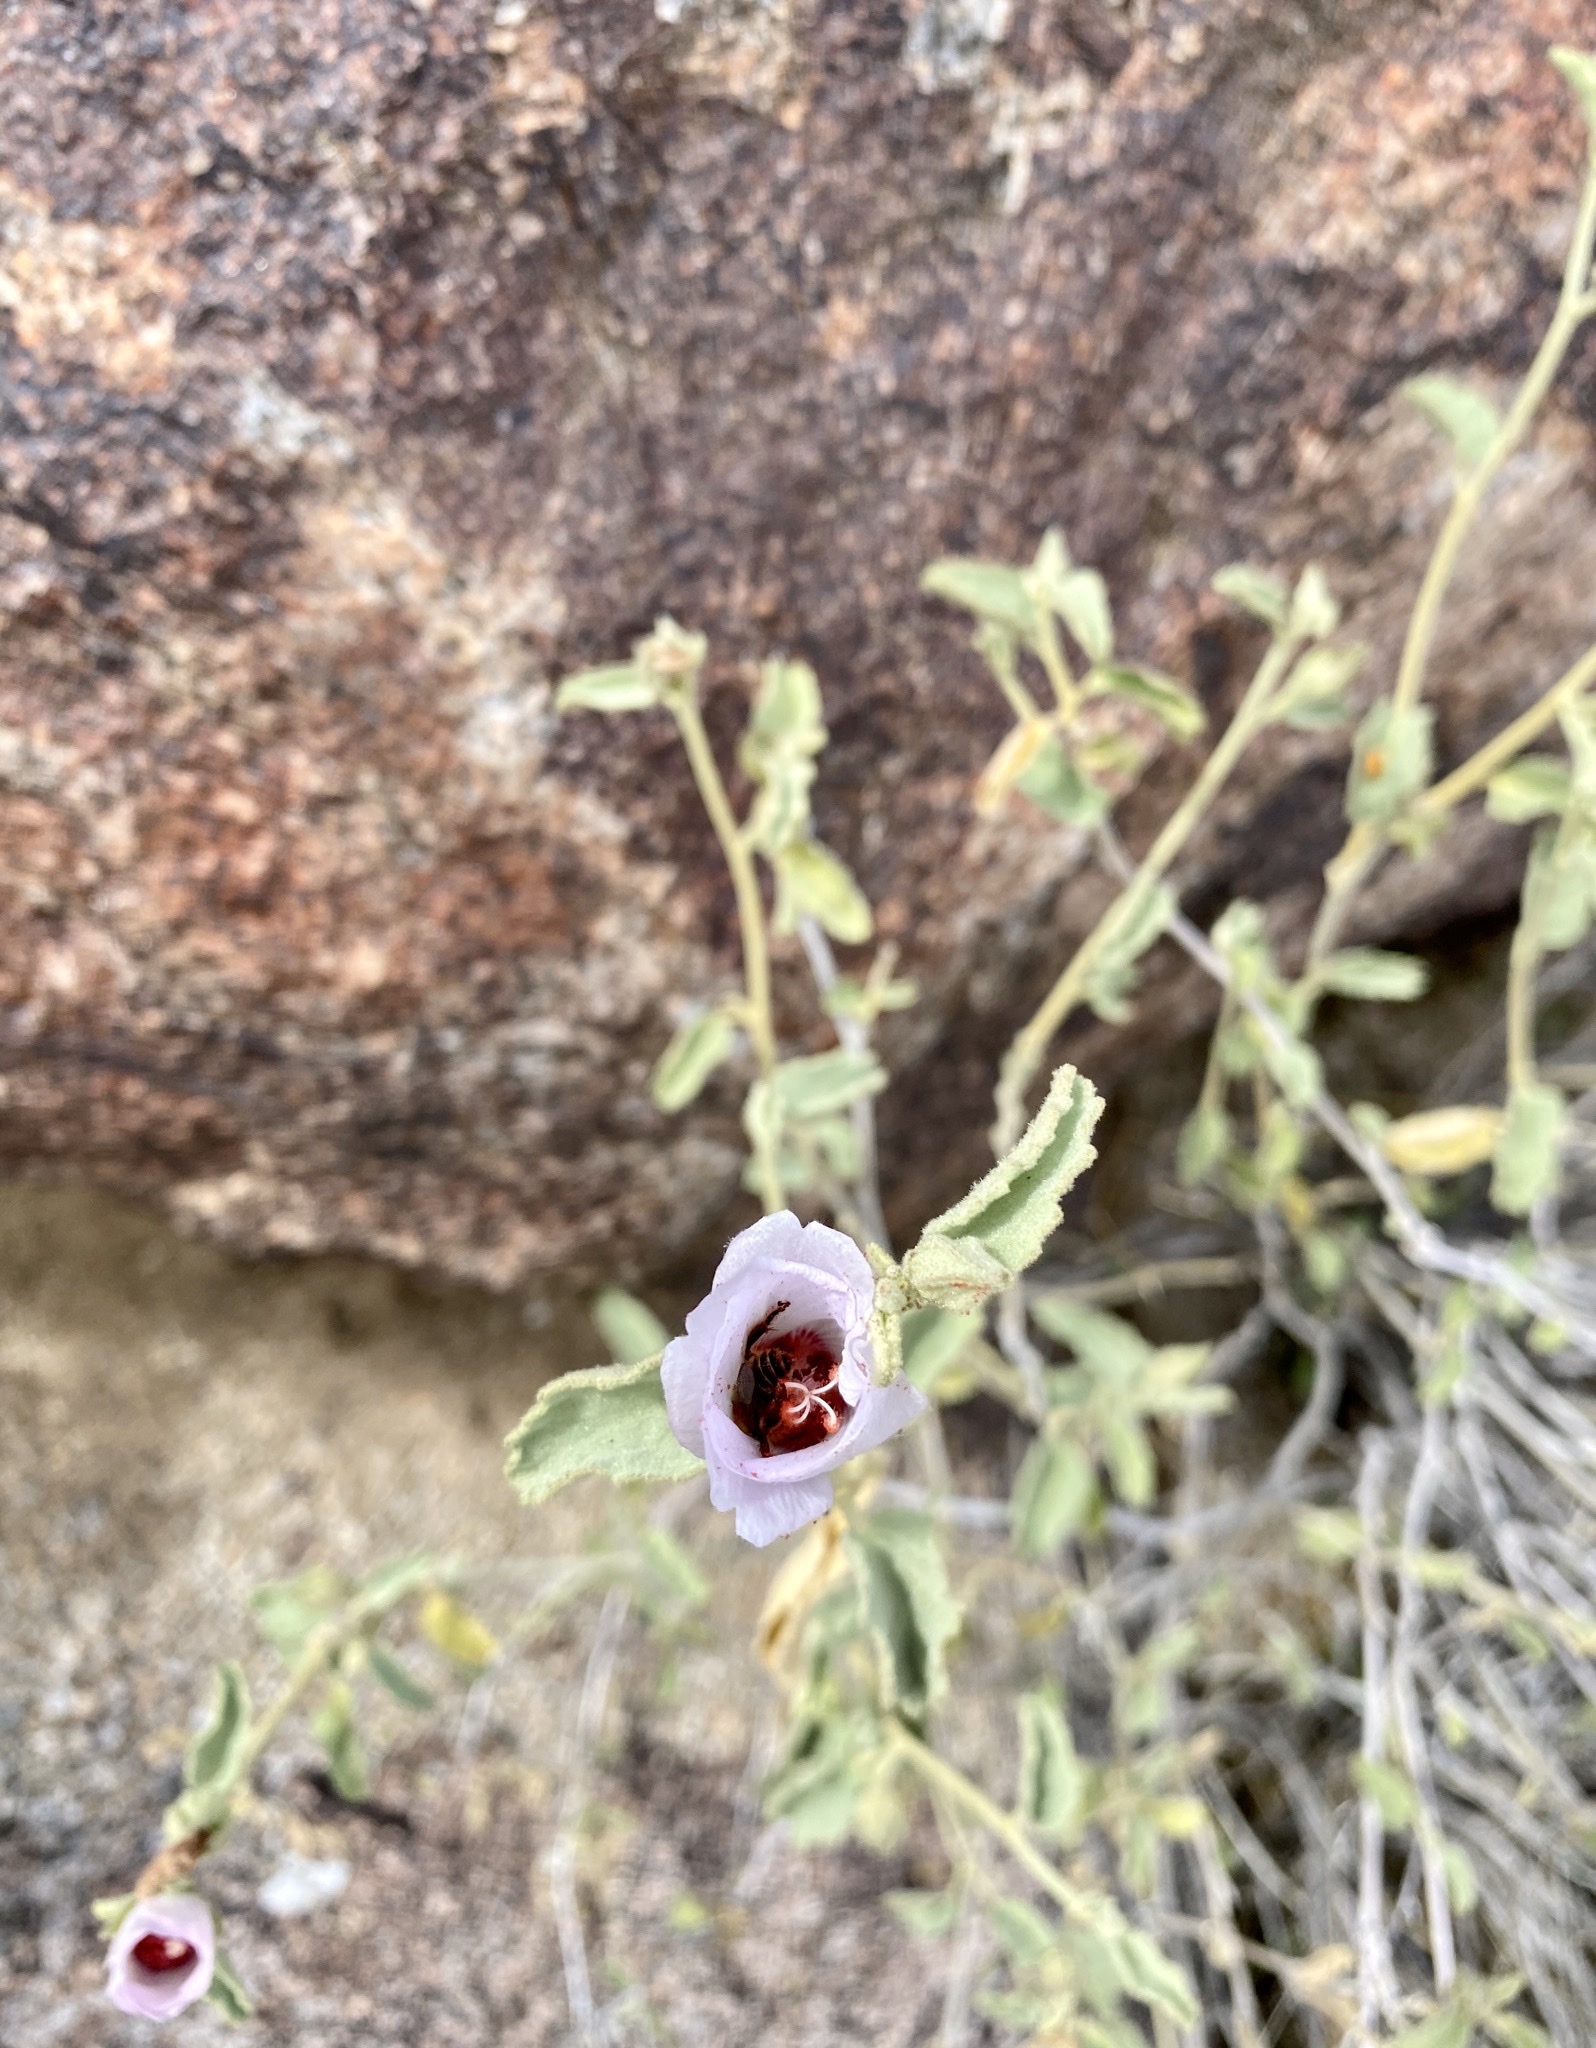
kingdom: Plantae
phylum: Tracheophyta
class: Magnoliopsida
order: Malvales
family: Malvaceae
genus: Hibiscus
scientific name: Hibiscus denudatus
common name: Paleface
